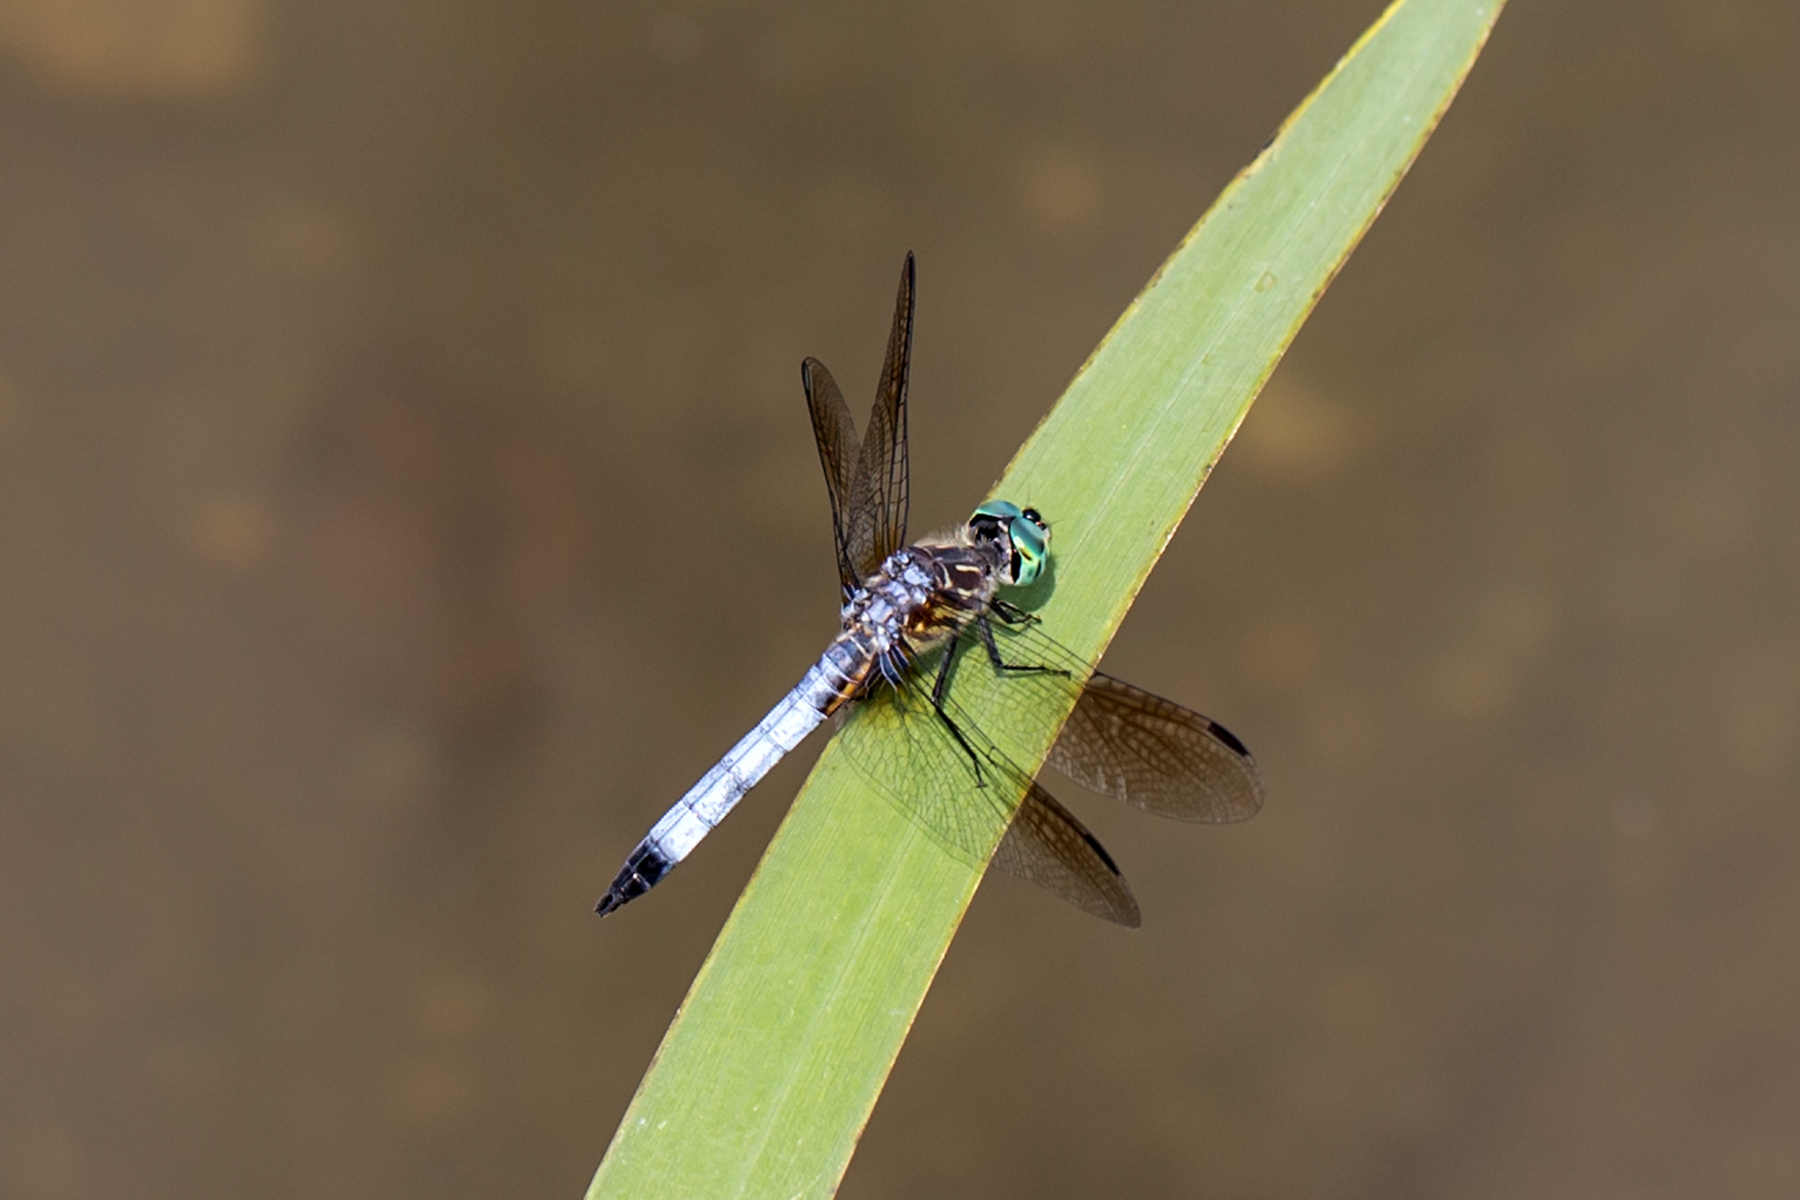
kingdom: Animalia
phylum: Arthropoda
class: Insecta
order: Odonata
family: Libellulidae
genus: Pachydiplax
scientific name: Pachydiplax longipennis
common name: Blue dasher
